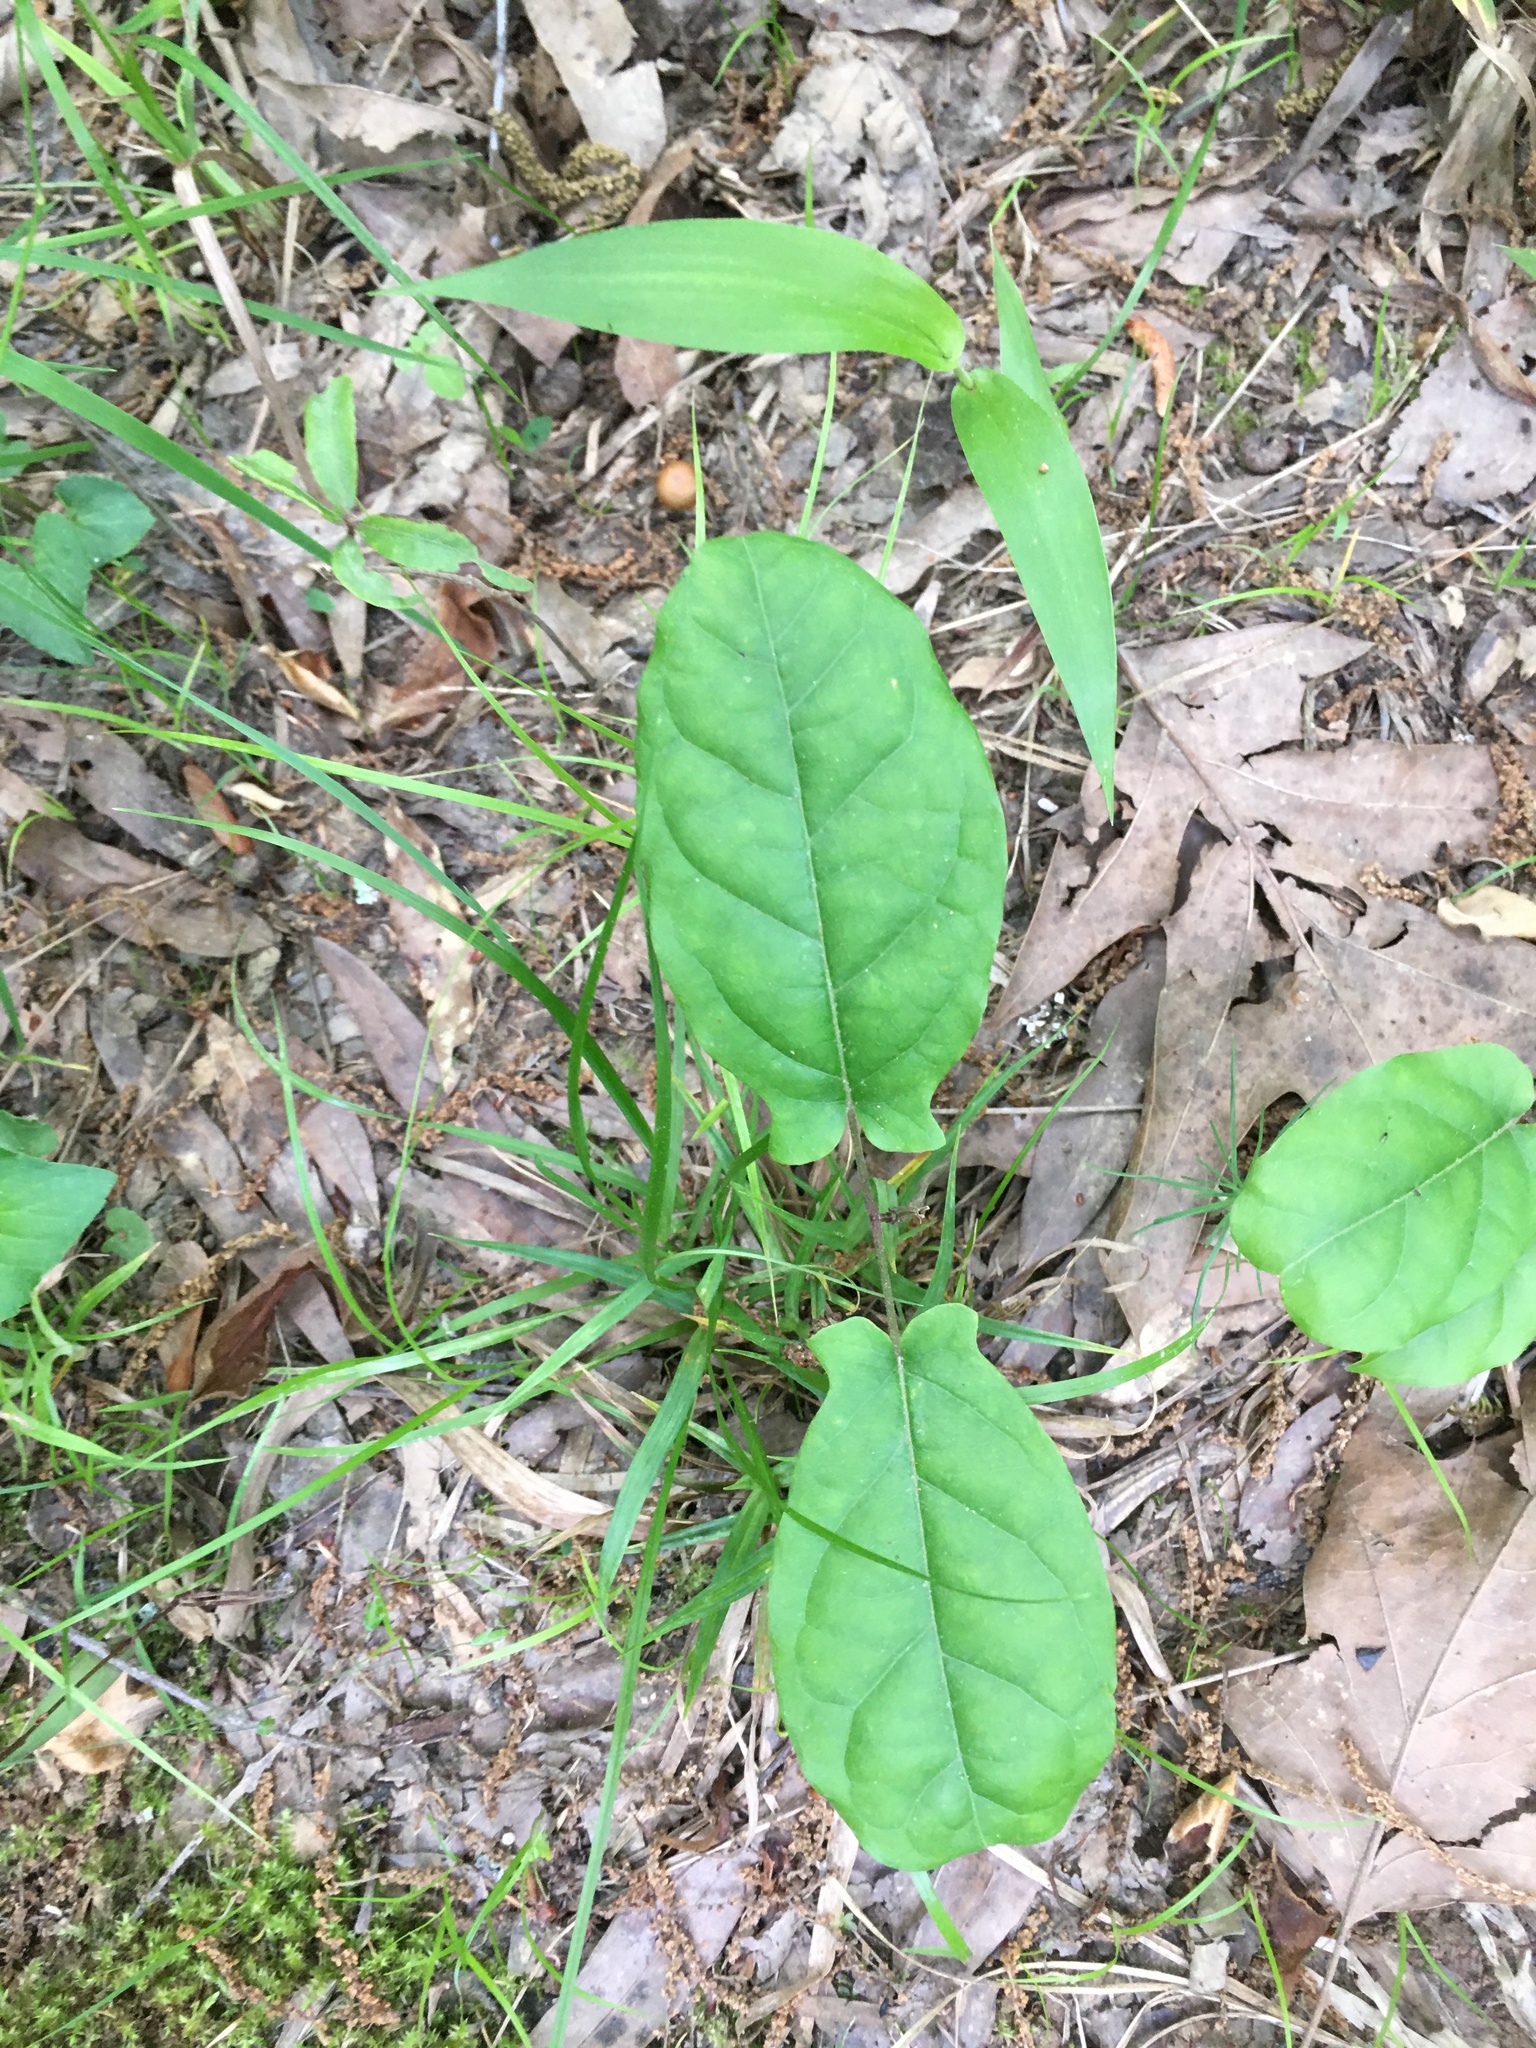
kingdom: Plantae
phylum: Tracheophyta
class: Magnoliopsida
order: Lamiales
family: Bignoniaceae
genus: Bignonia
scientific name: Bignonia capreolata
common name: Crossvine
